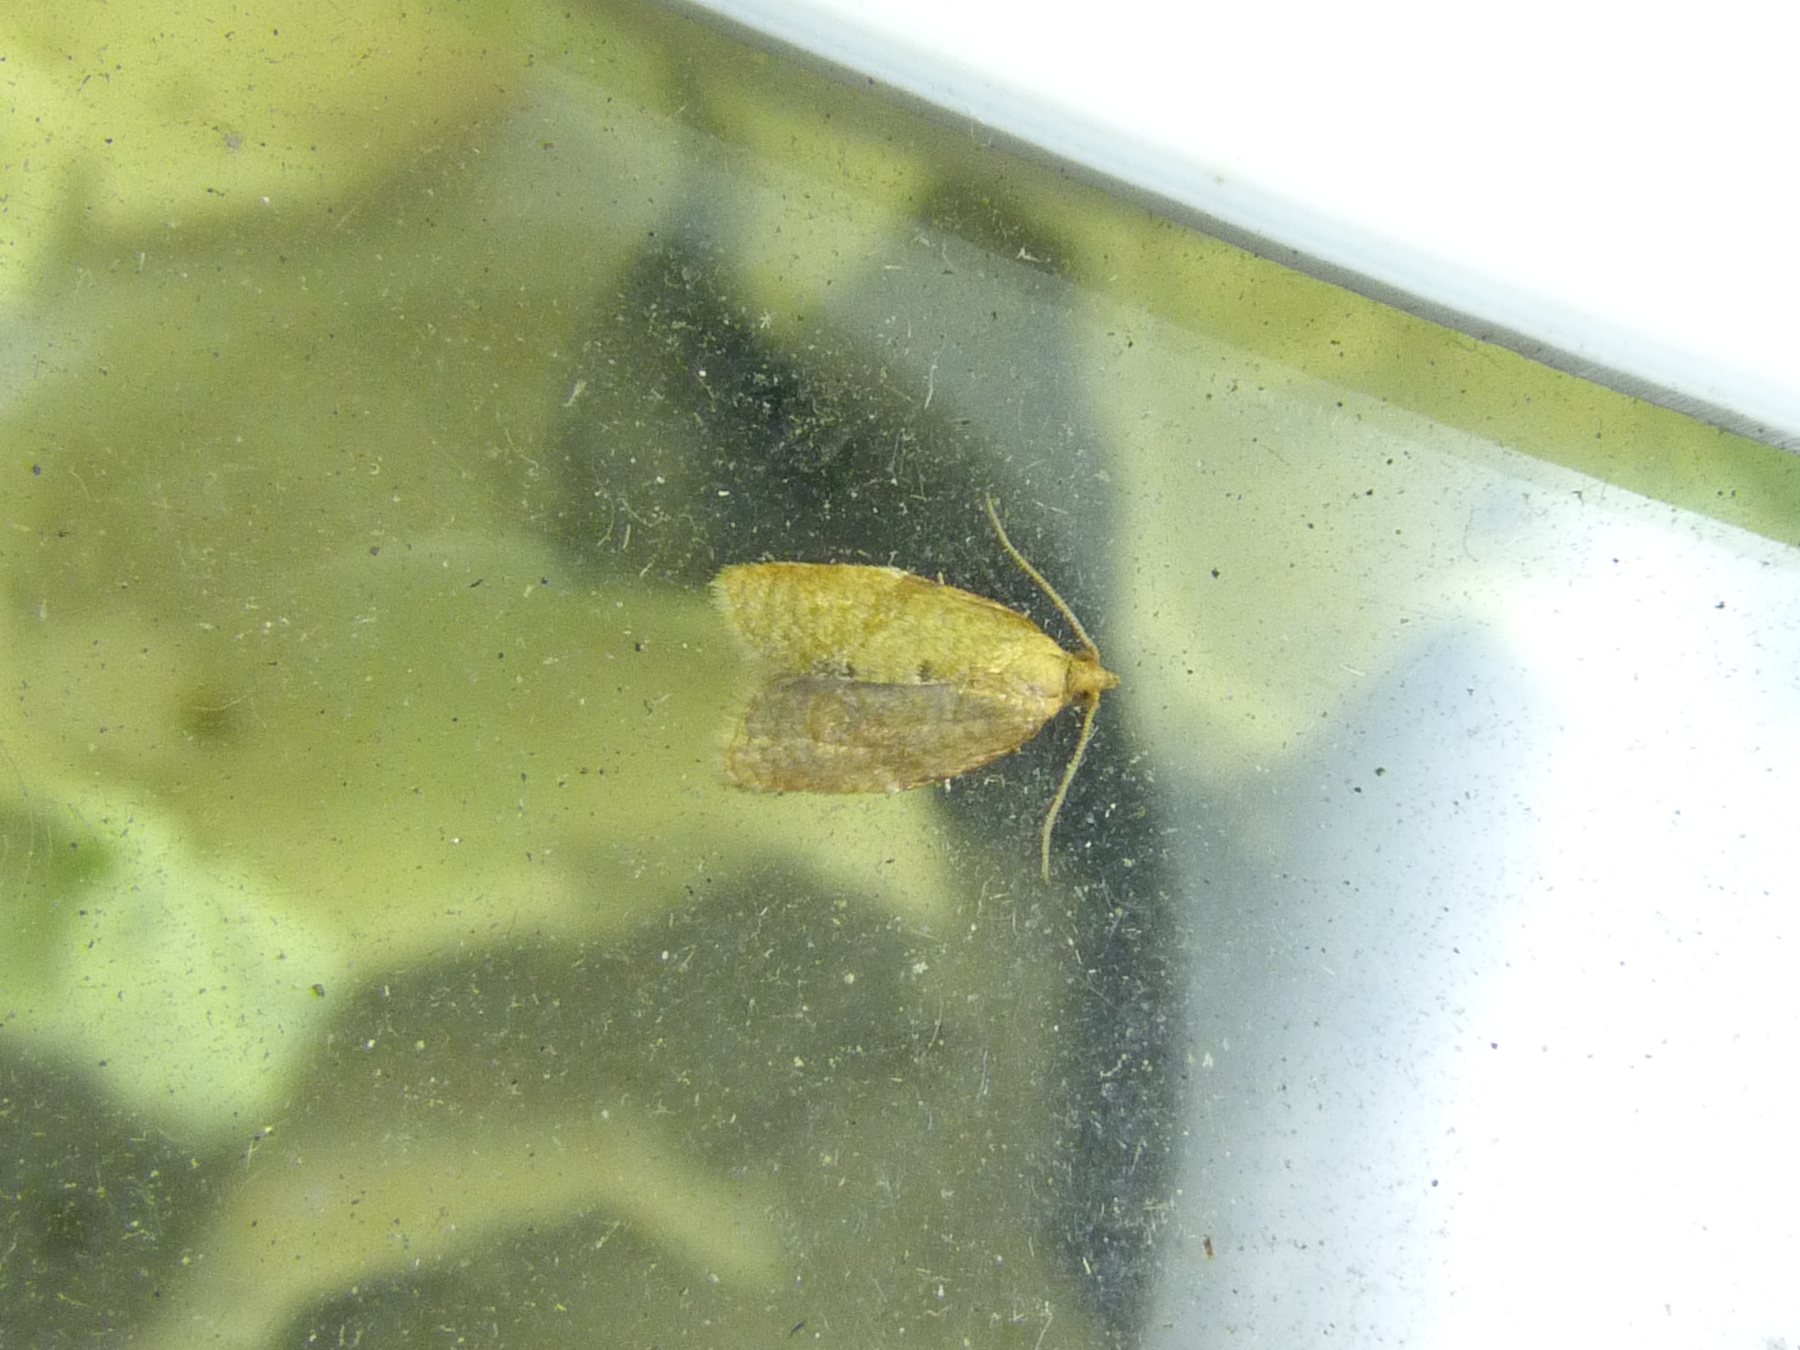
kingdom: Animalia
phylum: Arthropoda
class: Insecta
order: Lepidoptera
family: Tortricidae
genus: Clepsis
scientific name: Clepsis consimilana
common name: Privet tortrix
